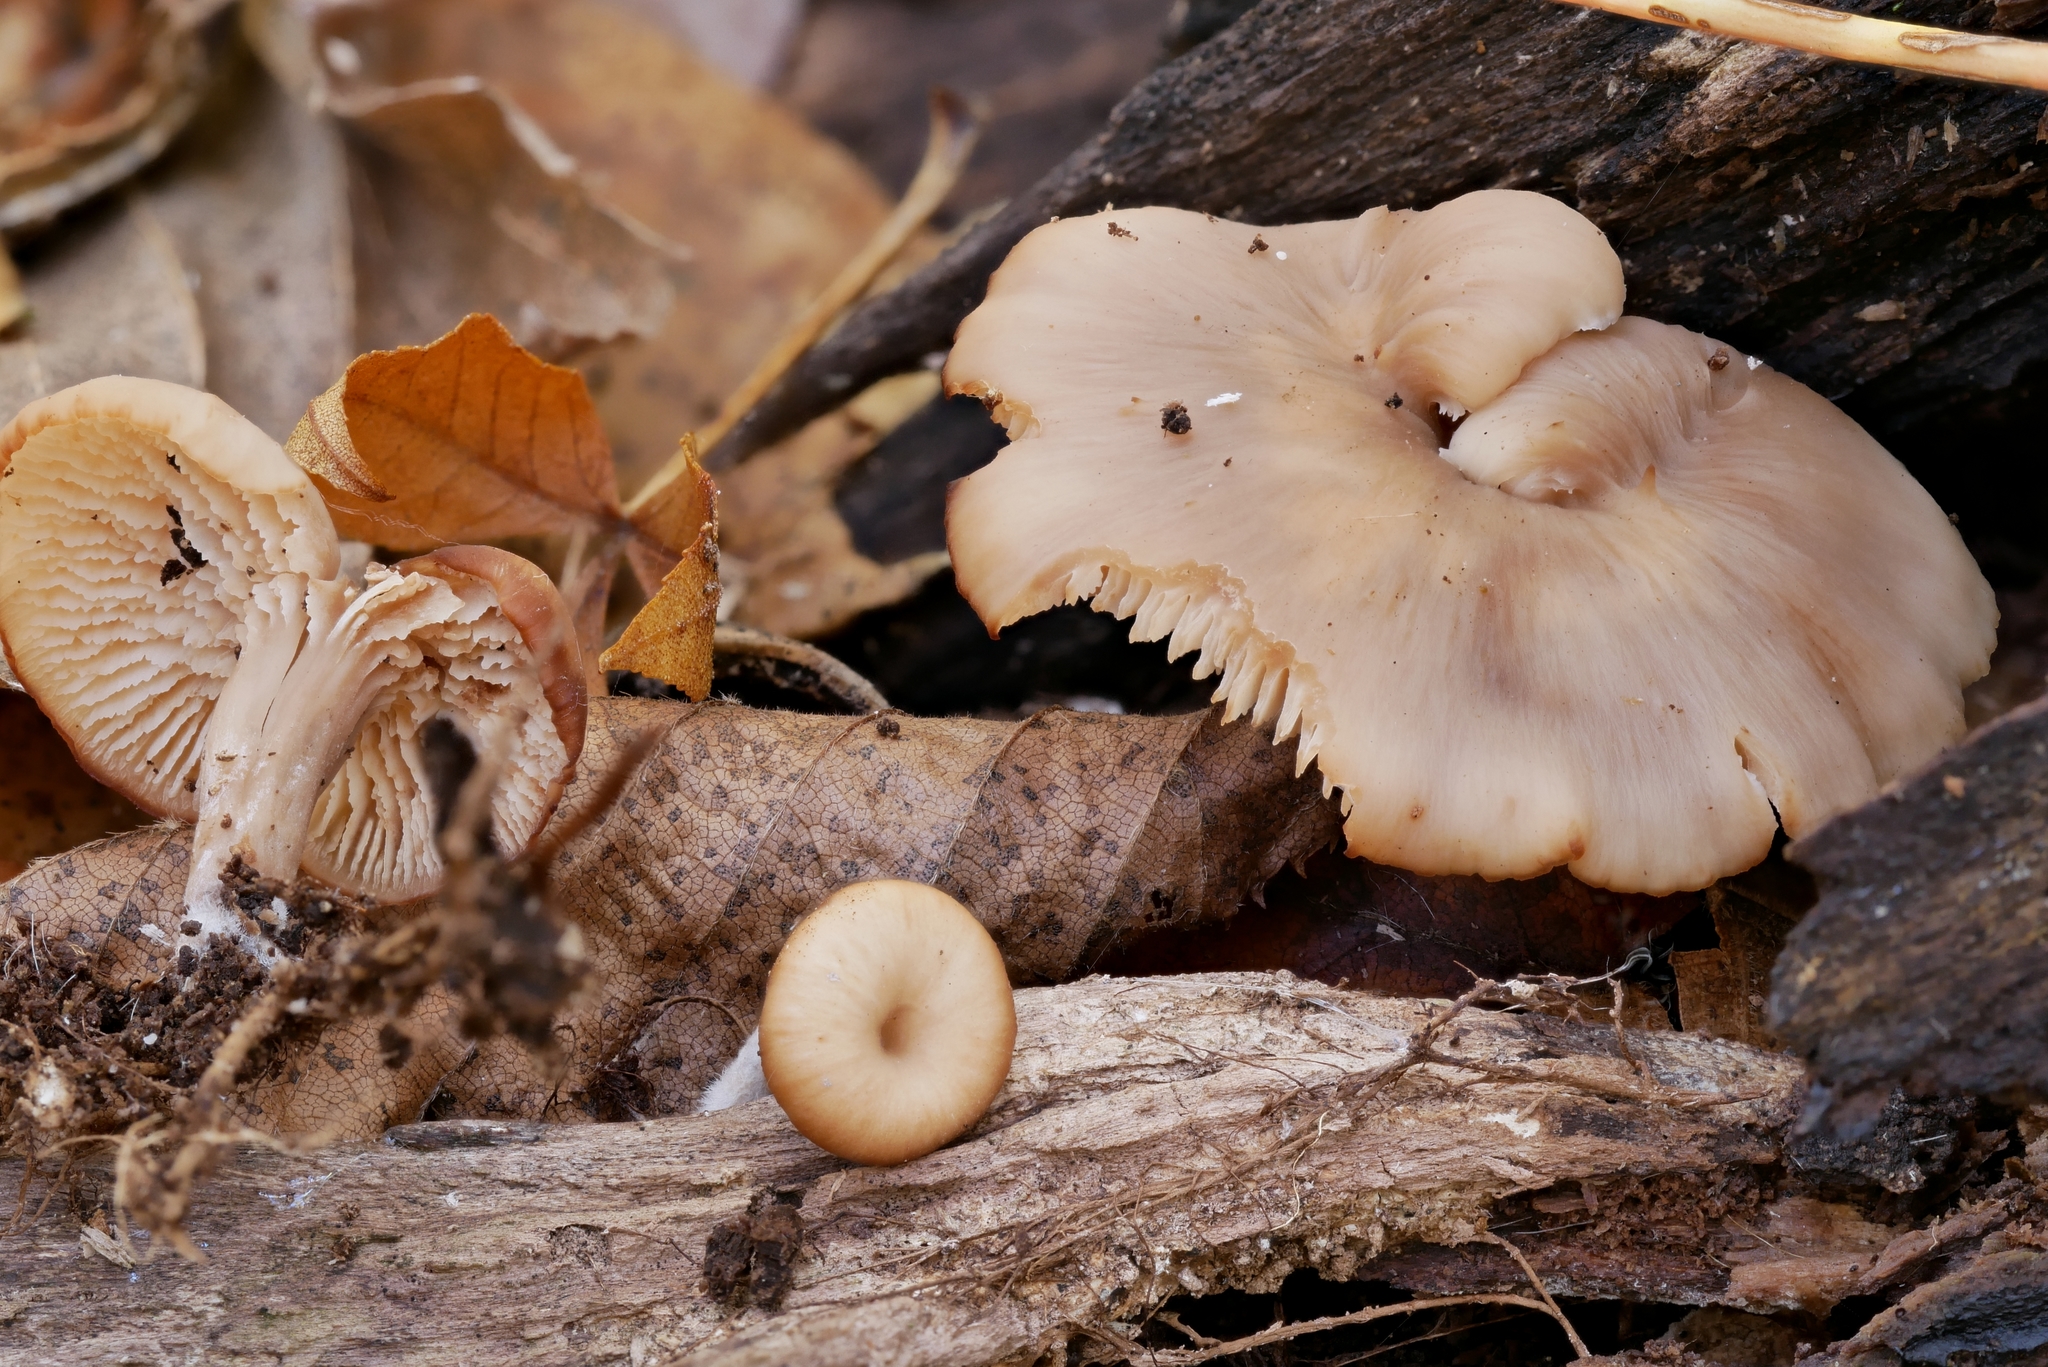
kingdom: Fungi
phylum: Basidiomycota
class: Agaricomycetes
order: Russulales
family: Auriscalpiaceae
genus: Lentinellus
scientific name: Lentinellus subaustralis
